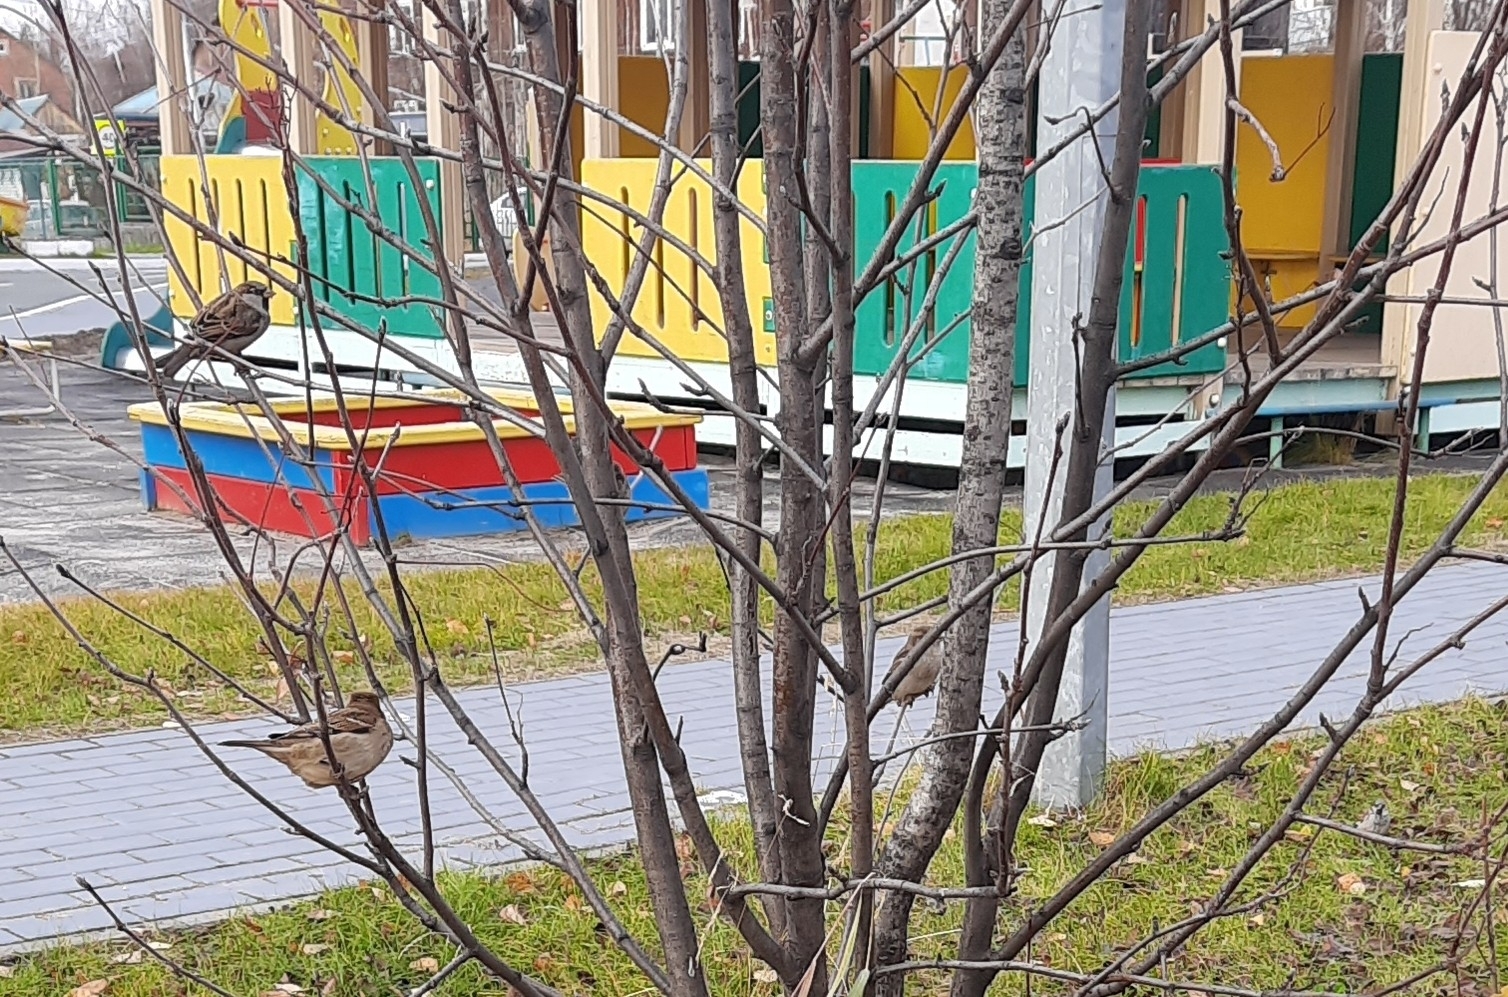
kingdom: Animalia
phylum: Chordata
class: Aves
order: Passeriformes
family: Passeridae
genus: Passer
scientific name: Passer domesticus
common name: House sparrow
